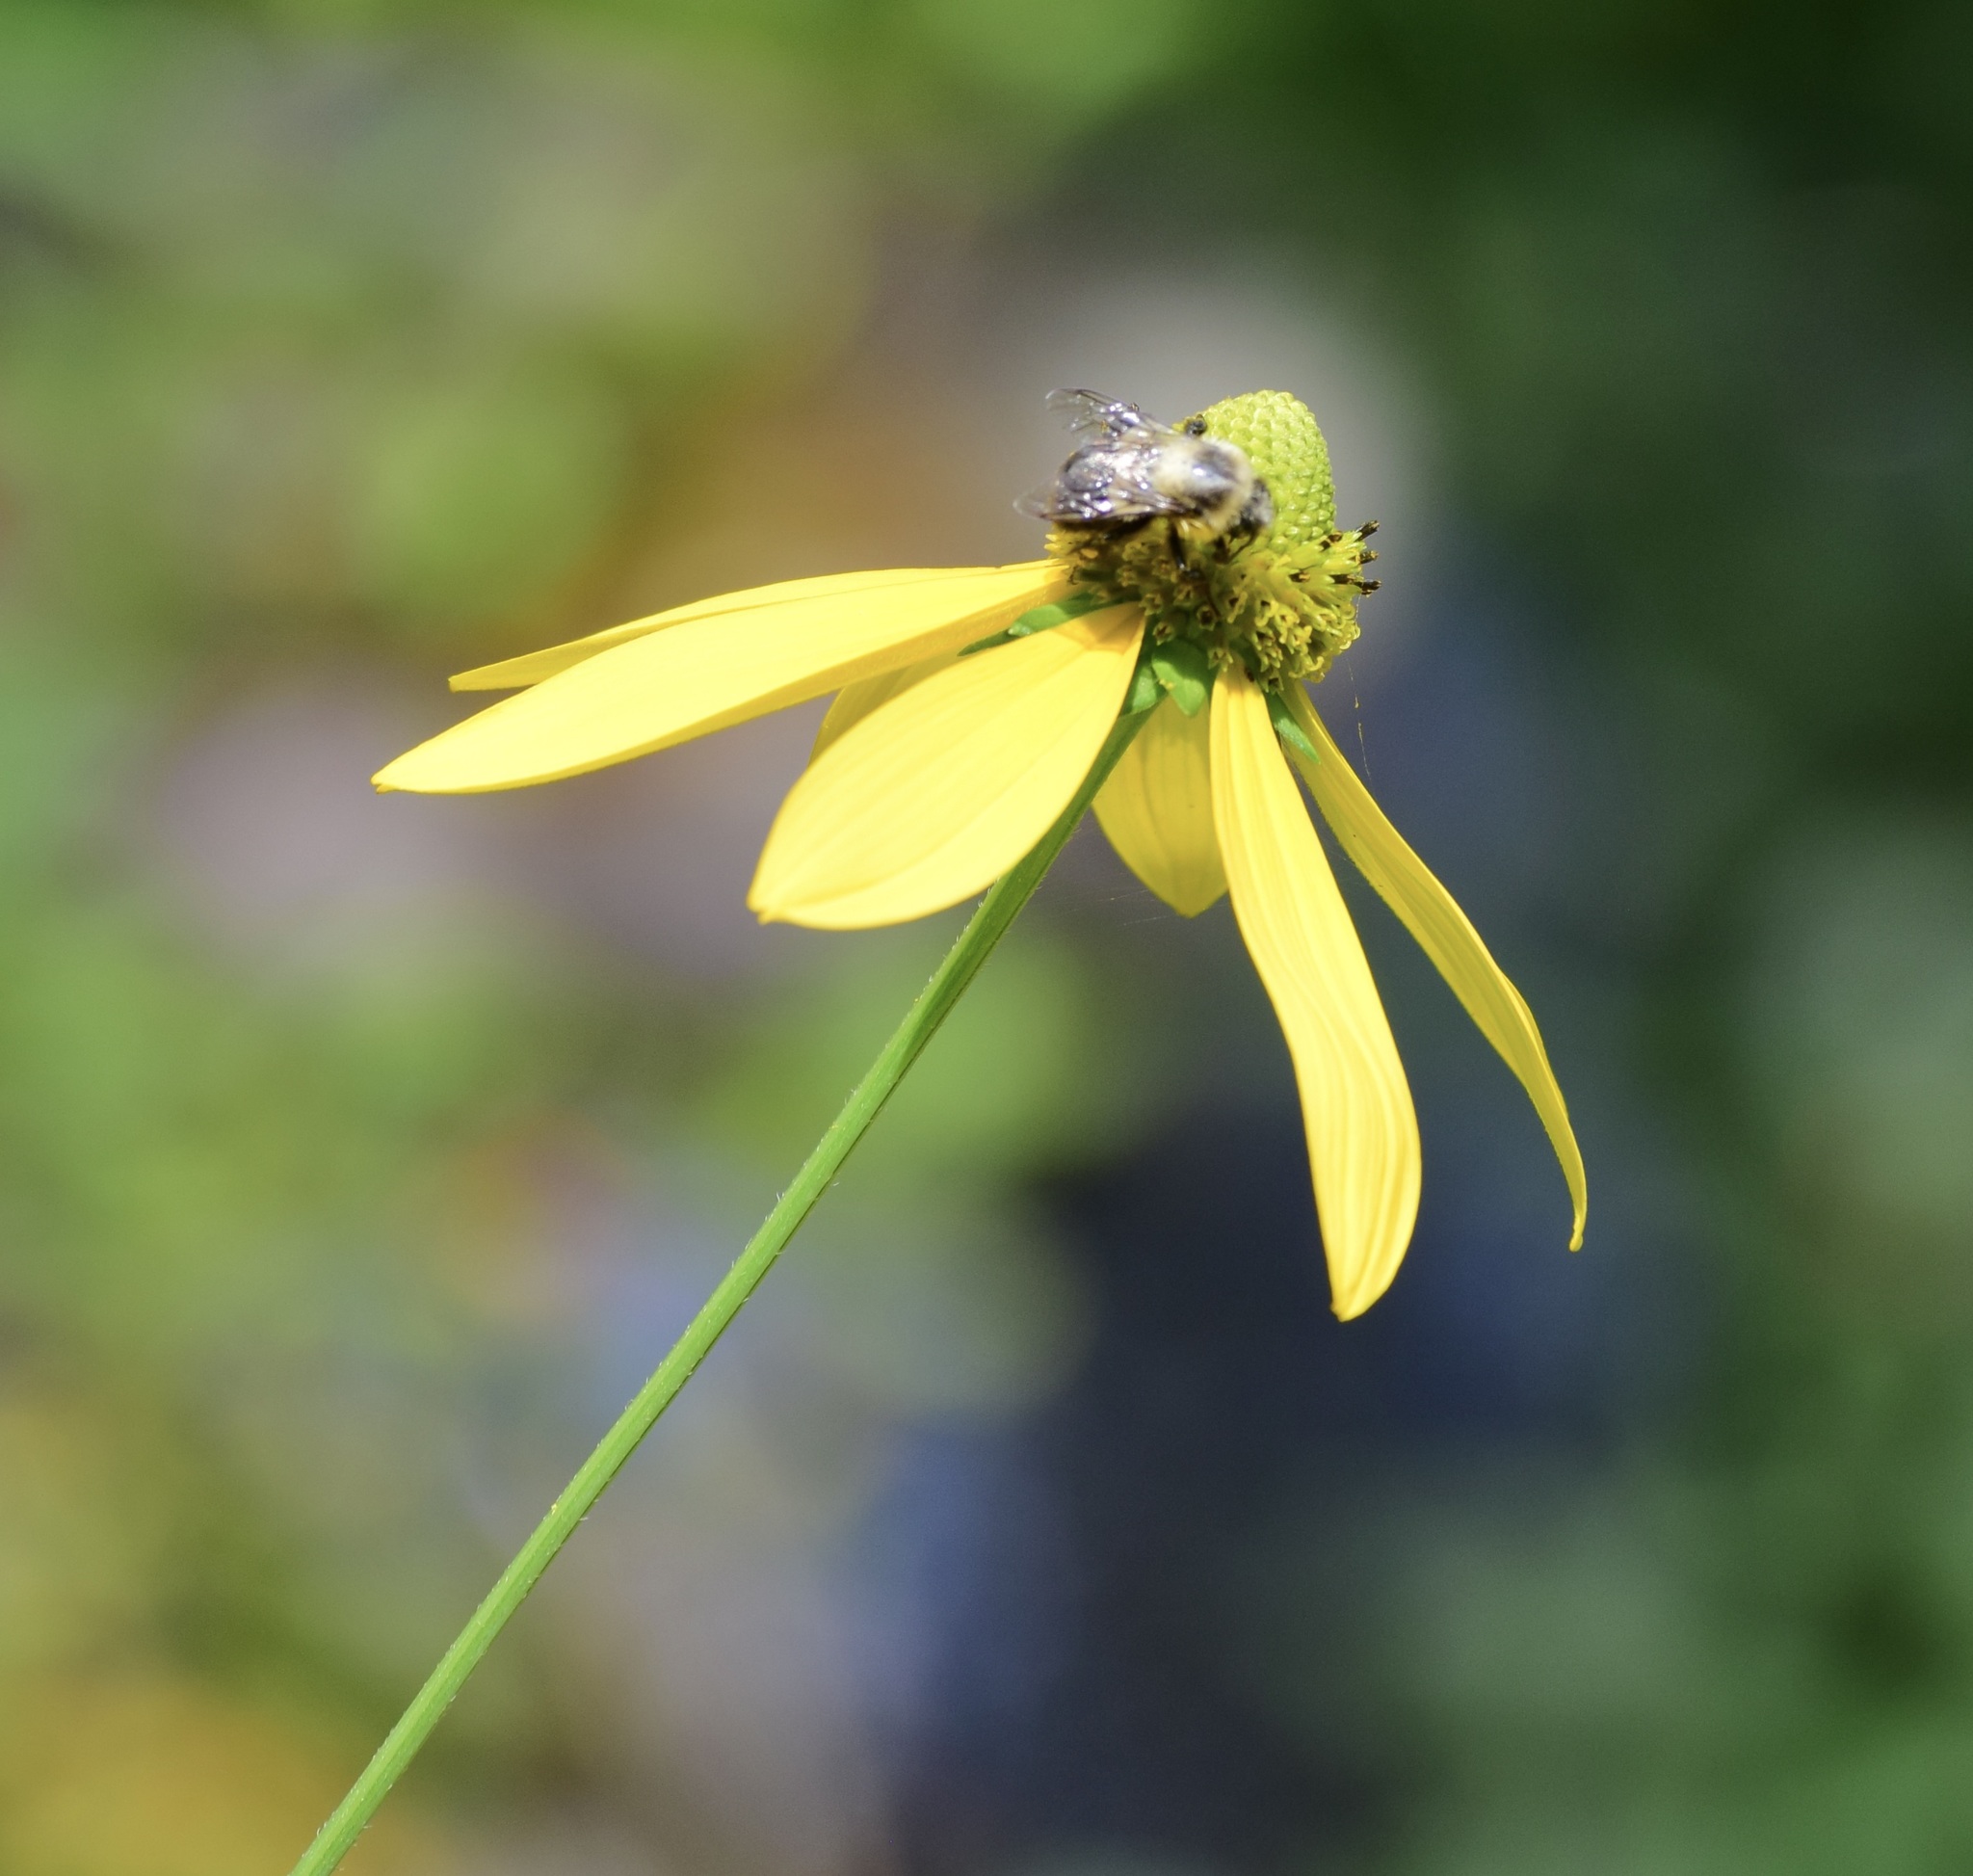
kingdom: Animalia
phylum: Arthropoda
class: Insecta
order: Hymenoptera
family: Apidae
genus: Bombus
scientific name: Bombus impatiens
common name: Common eastern bumble bee
